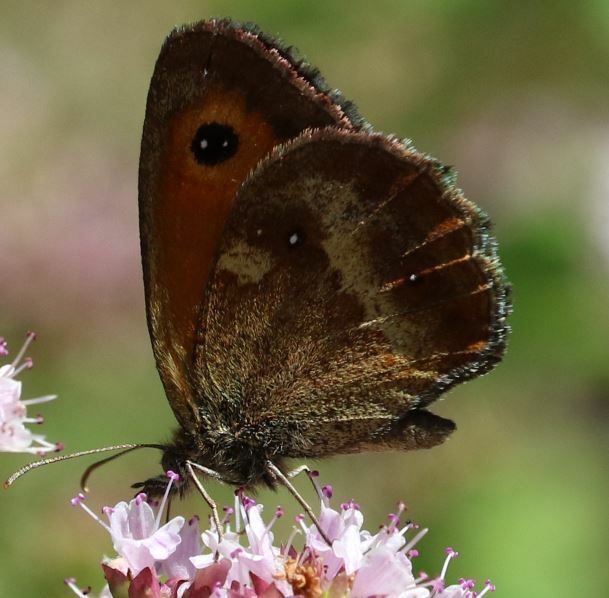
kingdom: Animalia
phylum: Arthropoda
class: Insecta
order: Lepidoptera
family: Nymphalidae
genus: Pyronia
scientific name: Pyronia tithonus
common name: Gatekeeper
